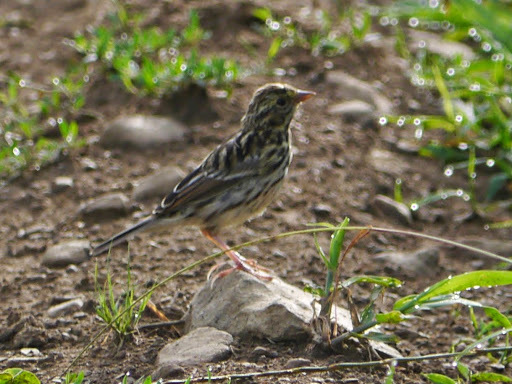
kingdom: Animalia
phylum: Chordata
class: Aves
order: Passeriformes
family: Passerellidae
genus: Passerculus
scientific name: Passerculus sandwichensis
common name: Savannah sparrow
